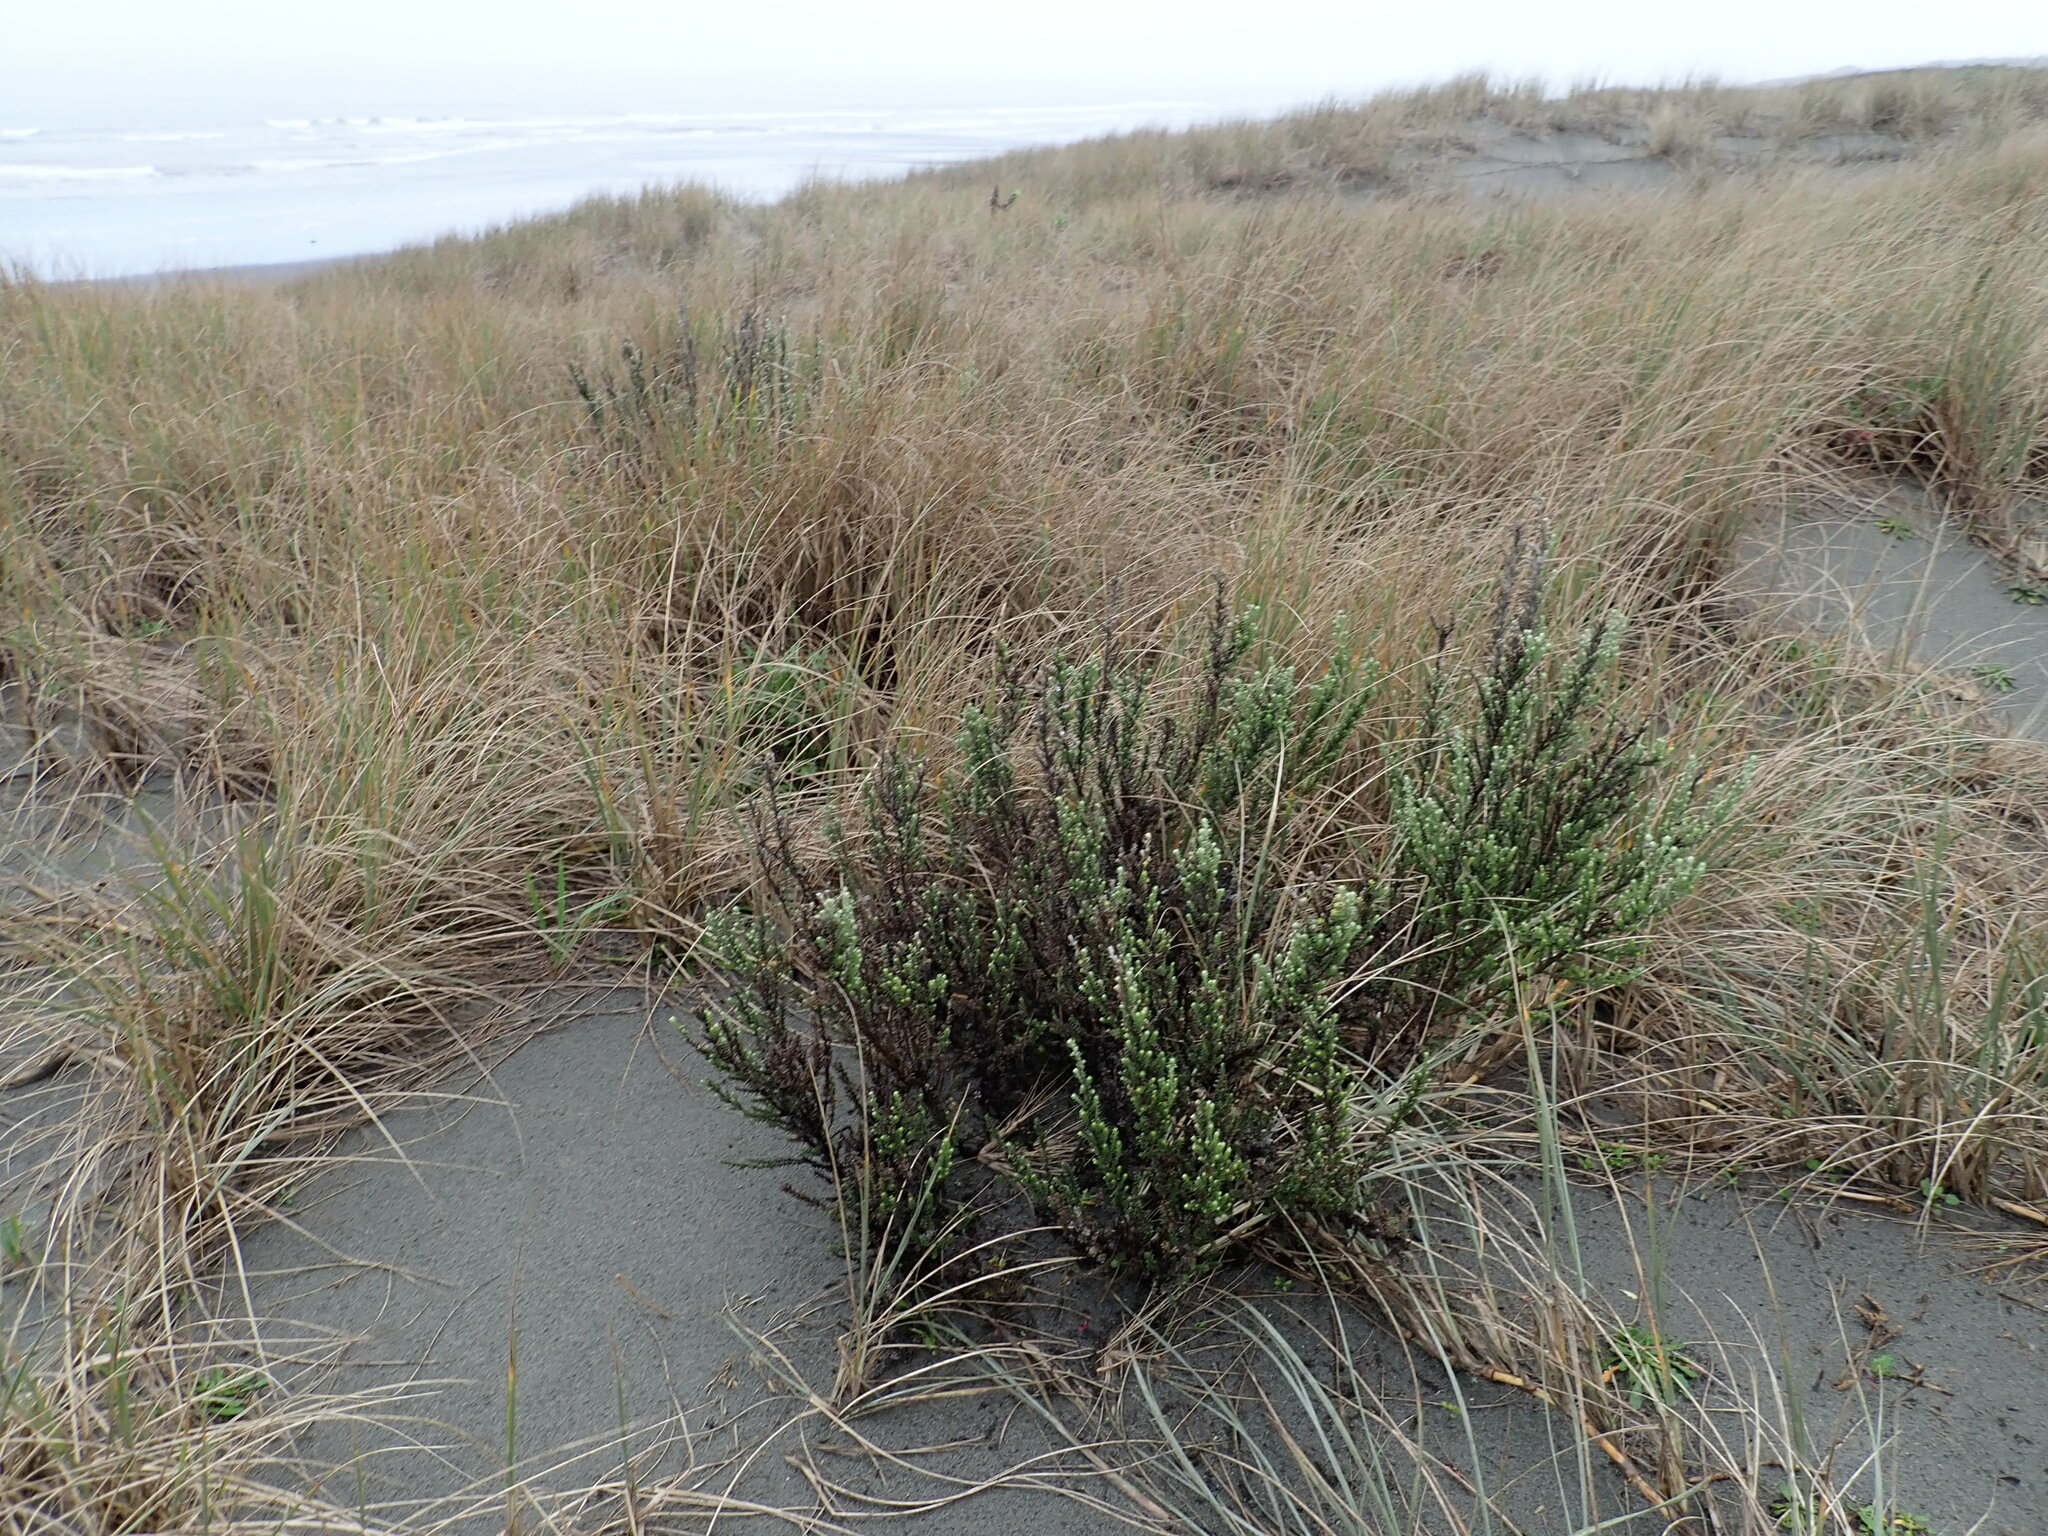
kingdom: Plantae
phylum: Tracheophyta
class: Magnoliopsida
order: Asterales
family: Asteraceae
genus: Ozothamnus
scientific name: Ozothamnus leptophyllus
